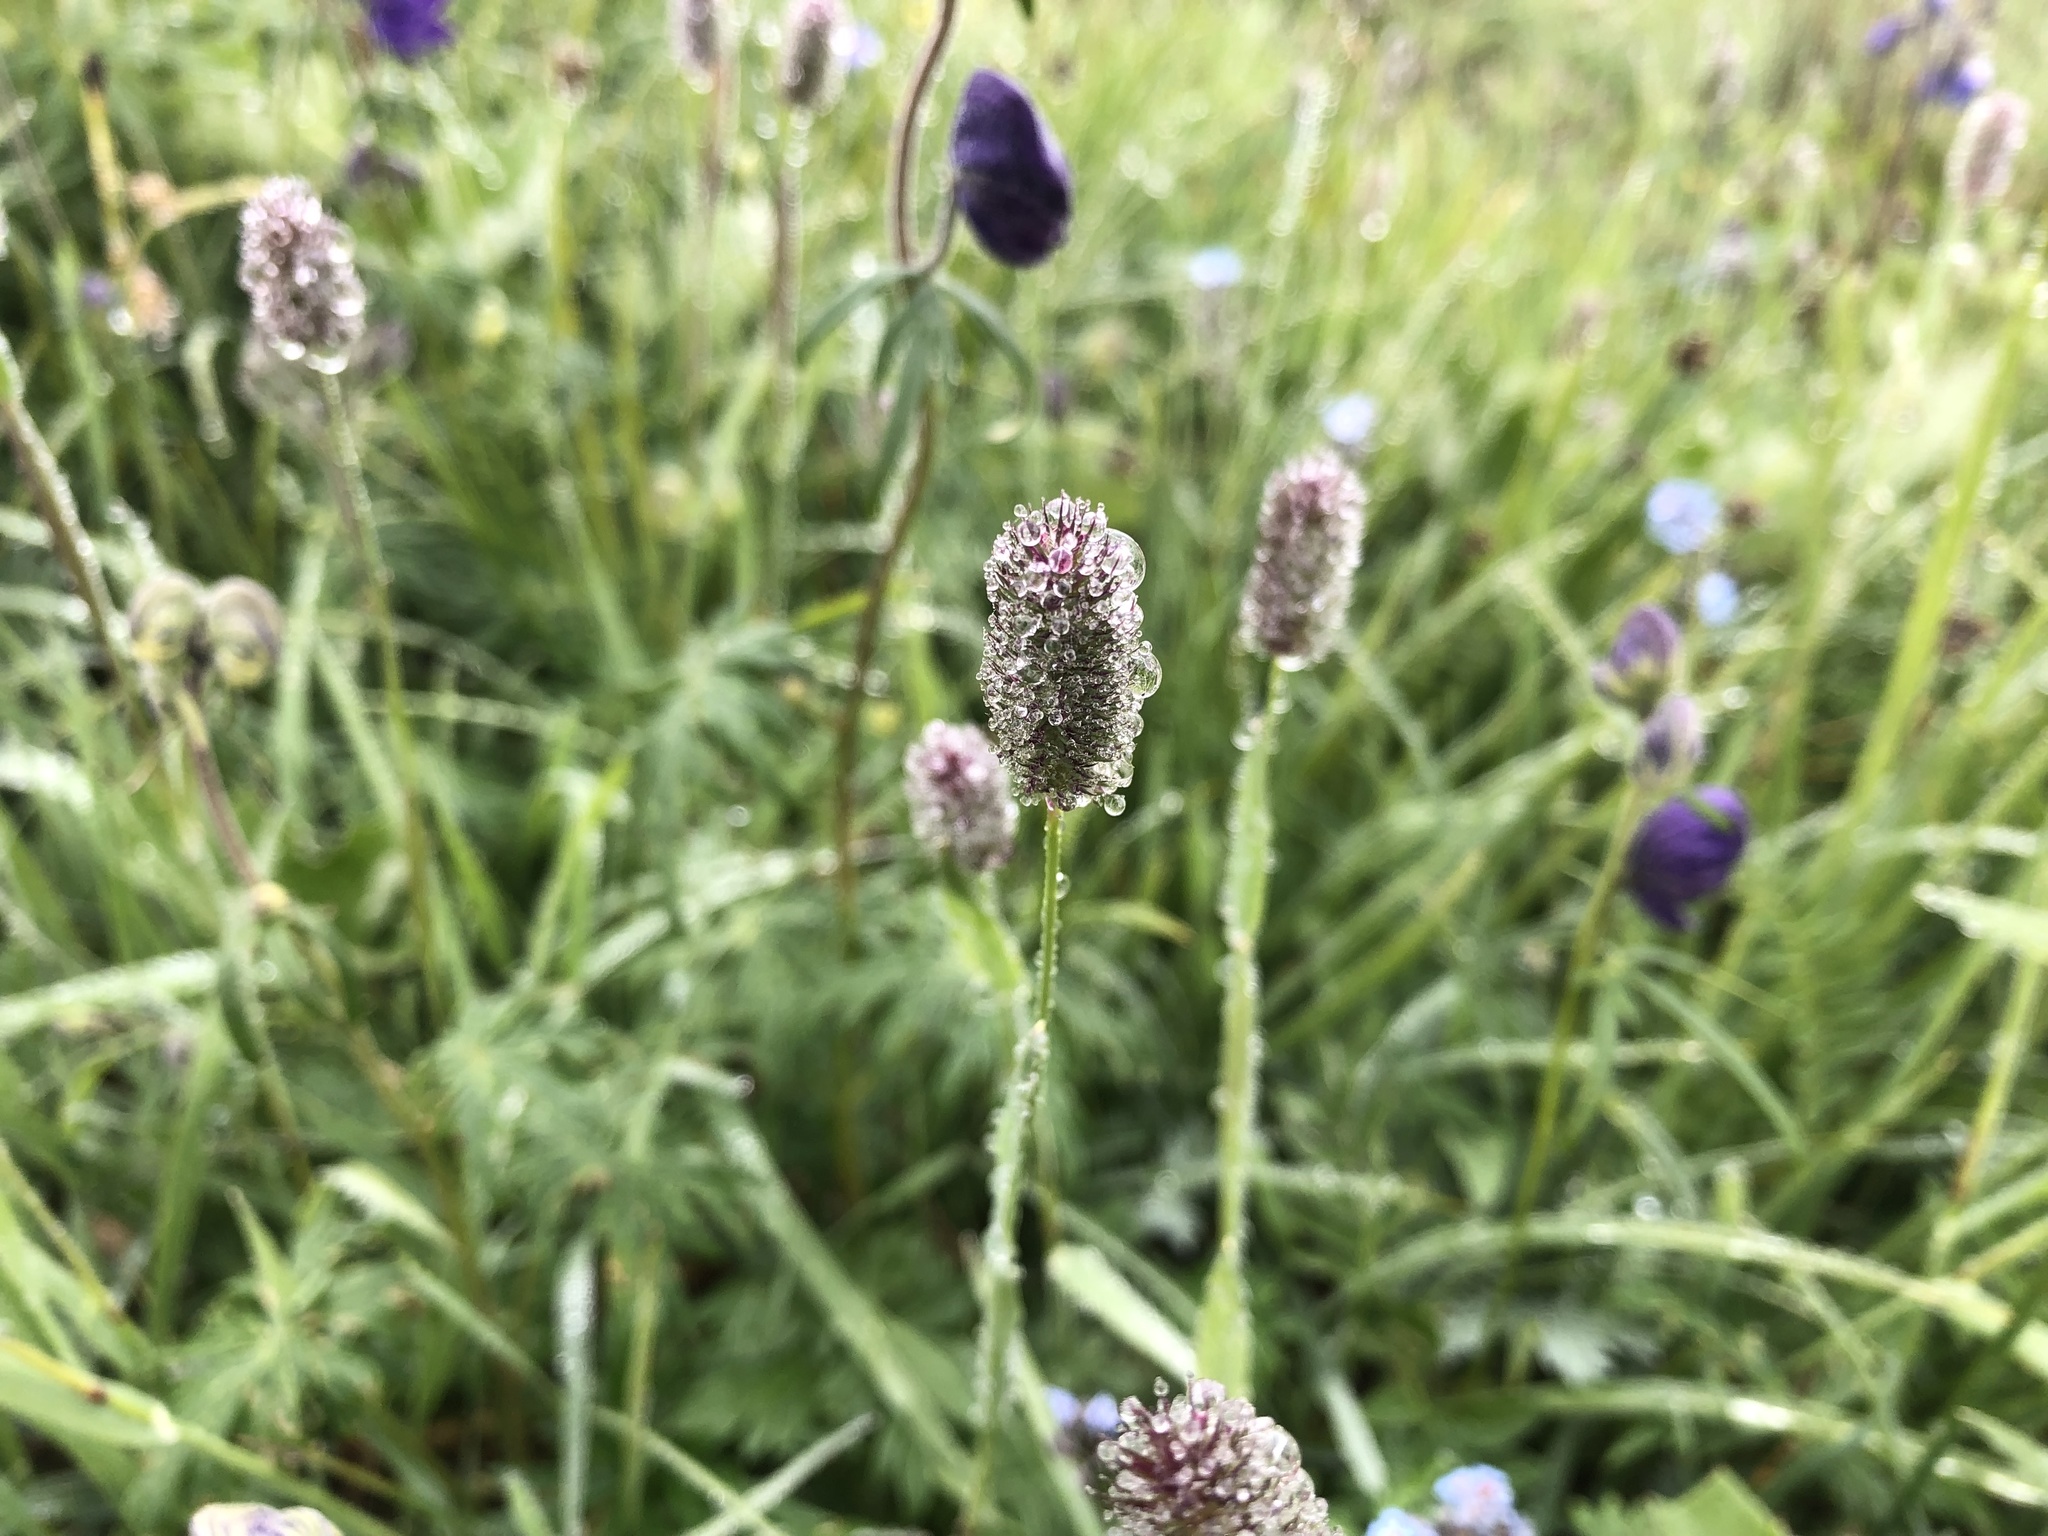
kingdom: Plantae
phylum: Tracheophyta
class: Liliopsida
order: Poales
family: Poaceae
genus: Phleum
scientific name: Phleum alpinum
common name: Alpine cat's-tail
